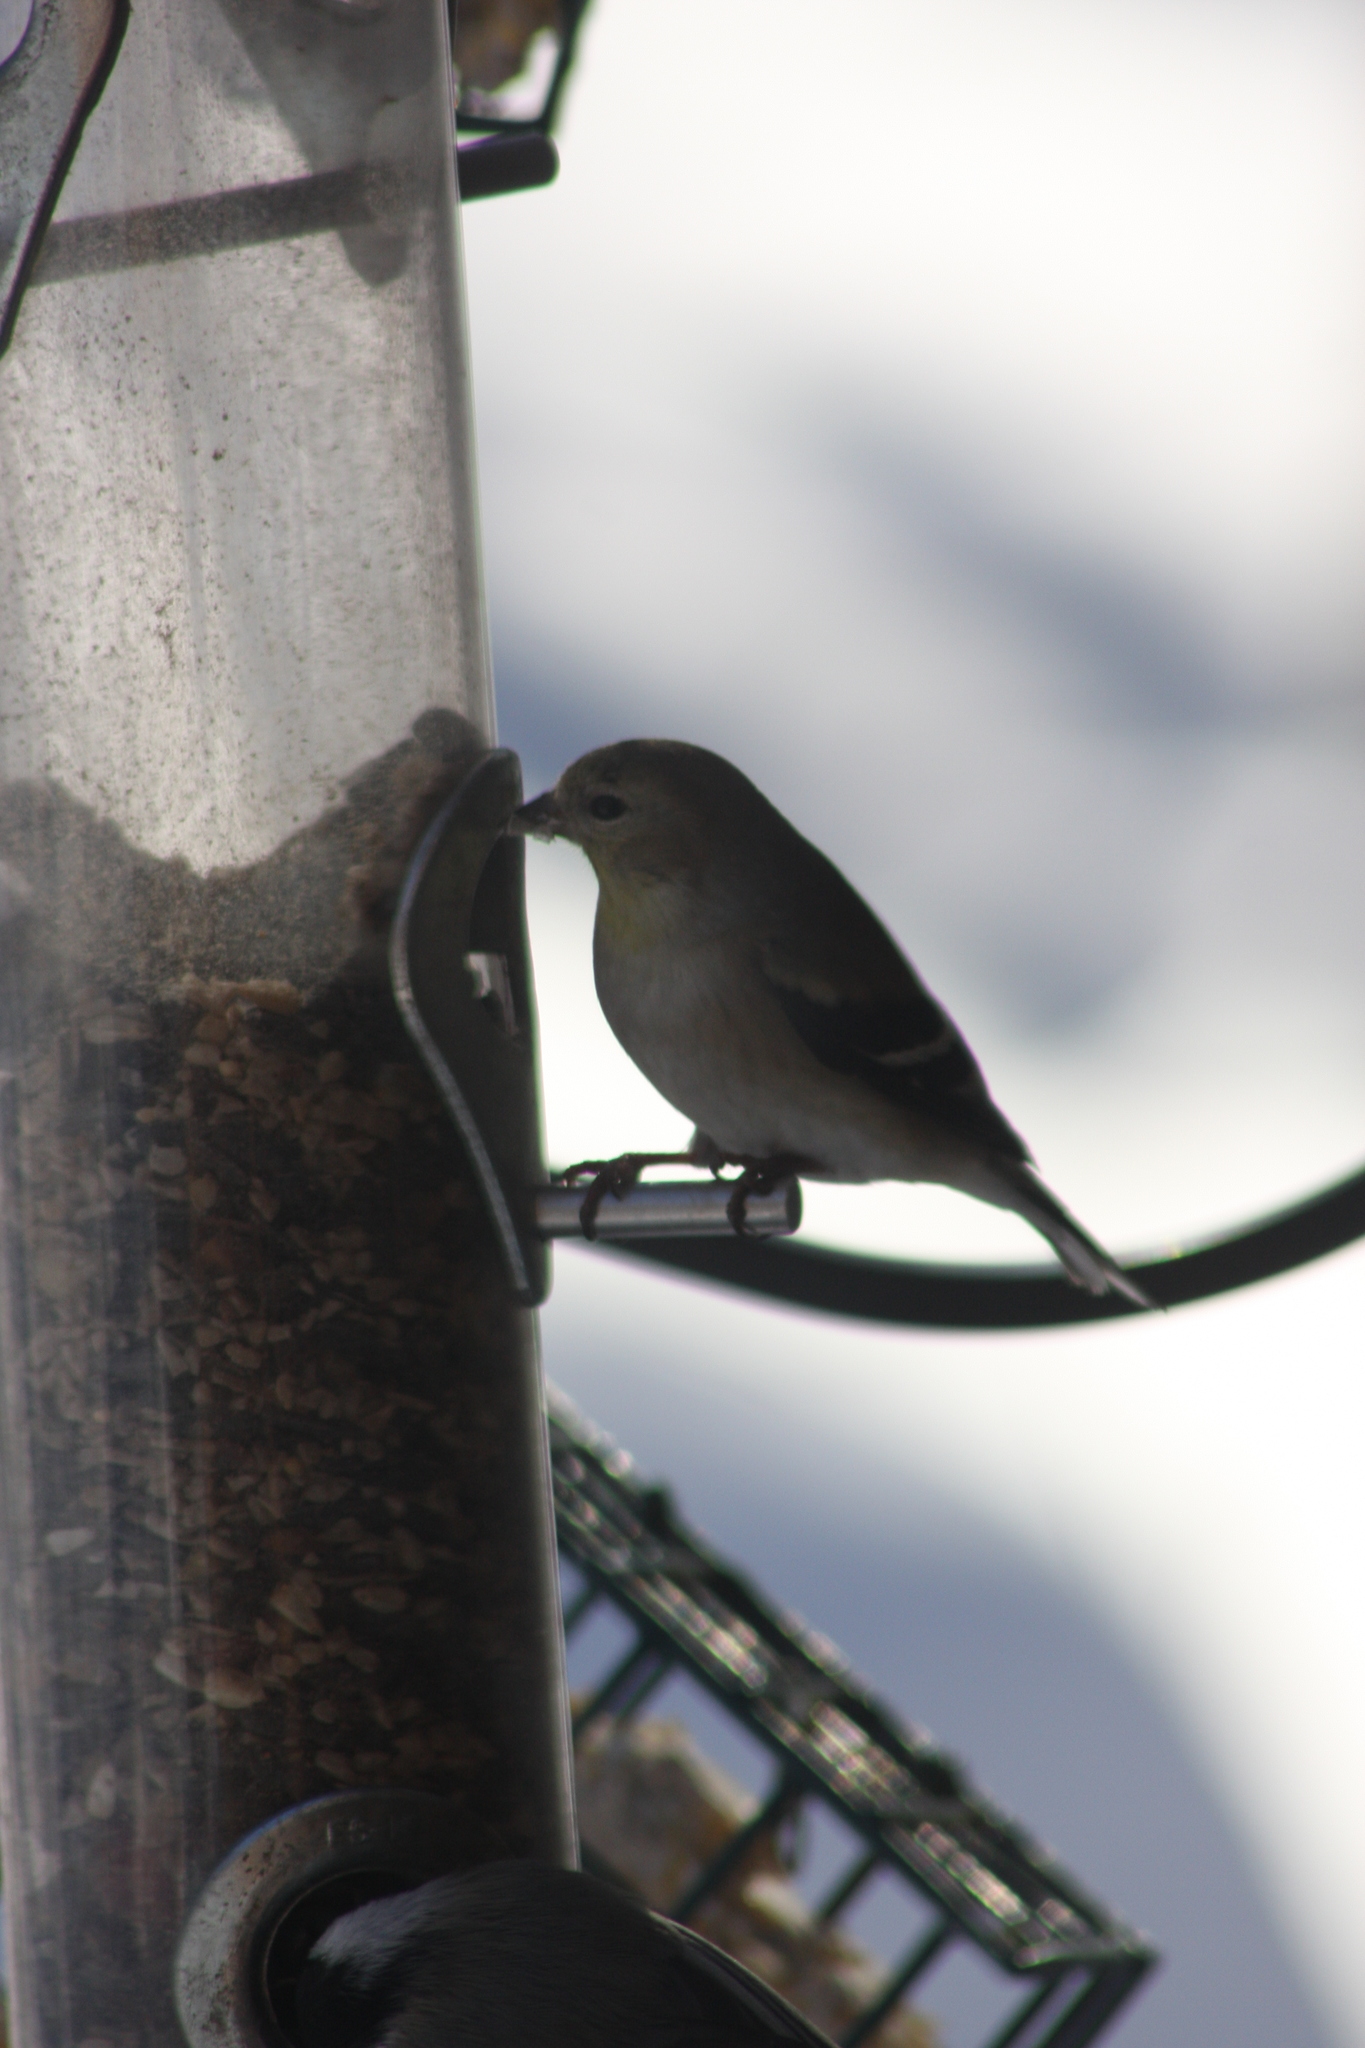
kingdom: Animalia
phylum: Chordata
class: Aves
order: Passeriformes
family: Fringillidae
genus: Spinus
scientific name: Spinus tristis
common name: American goldfinch
